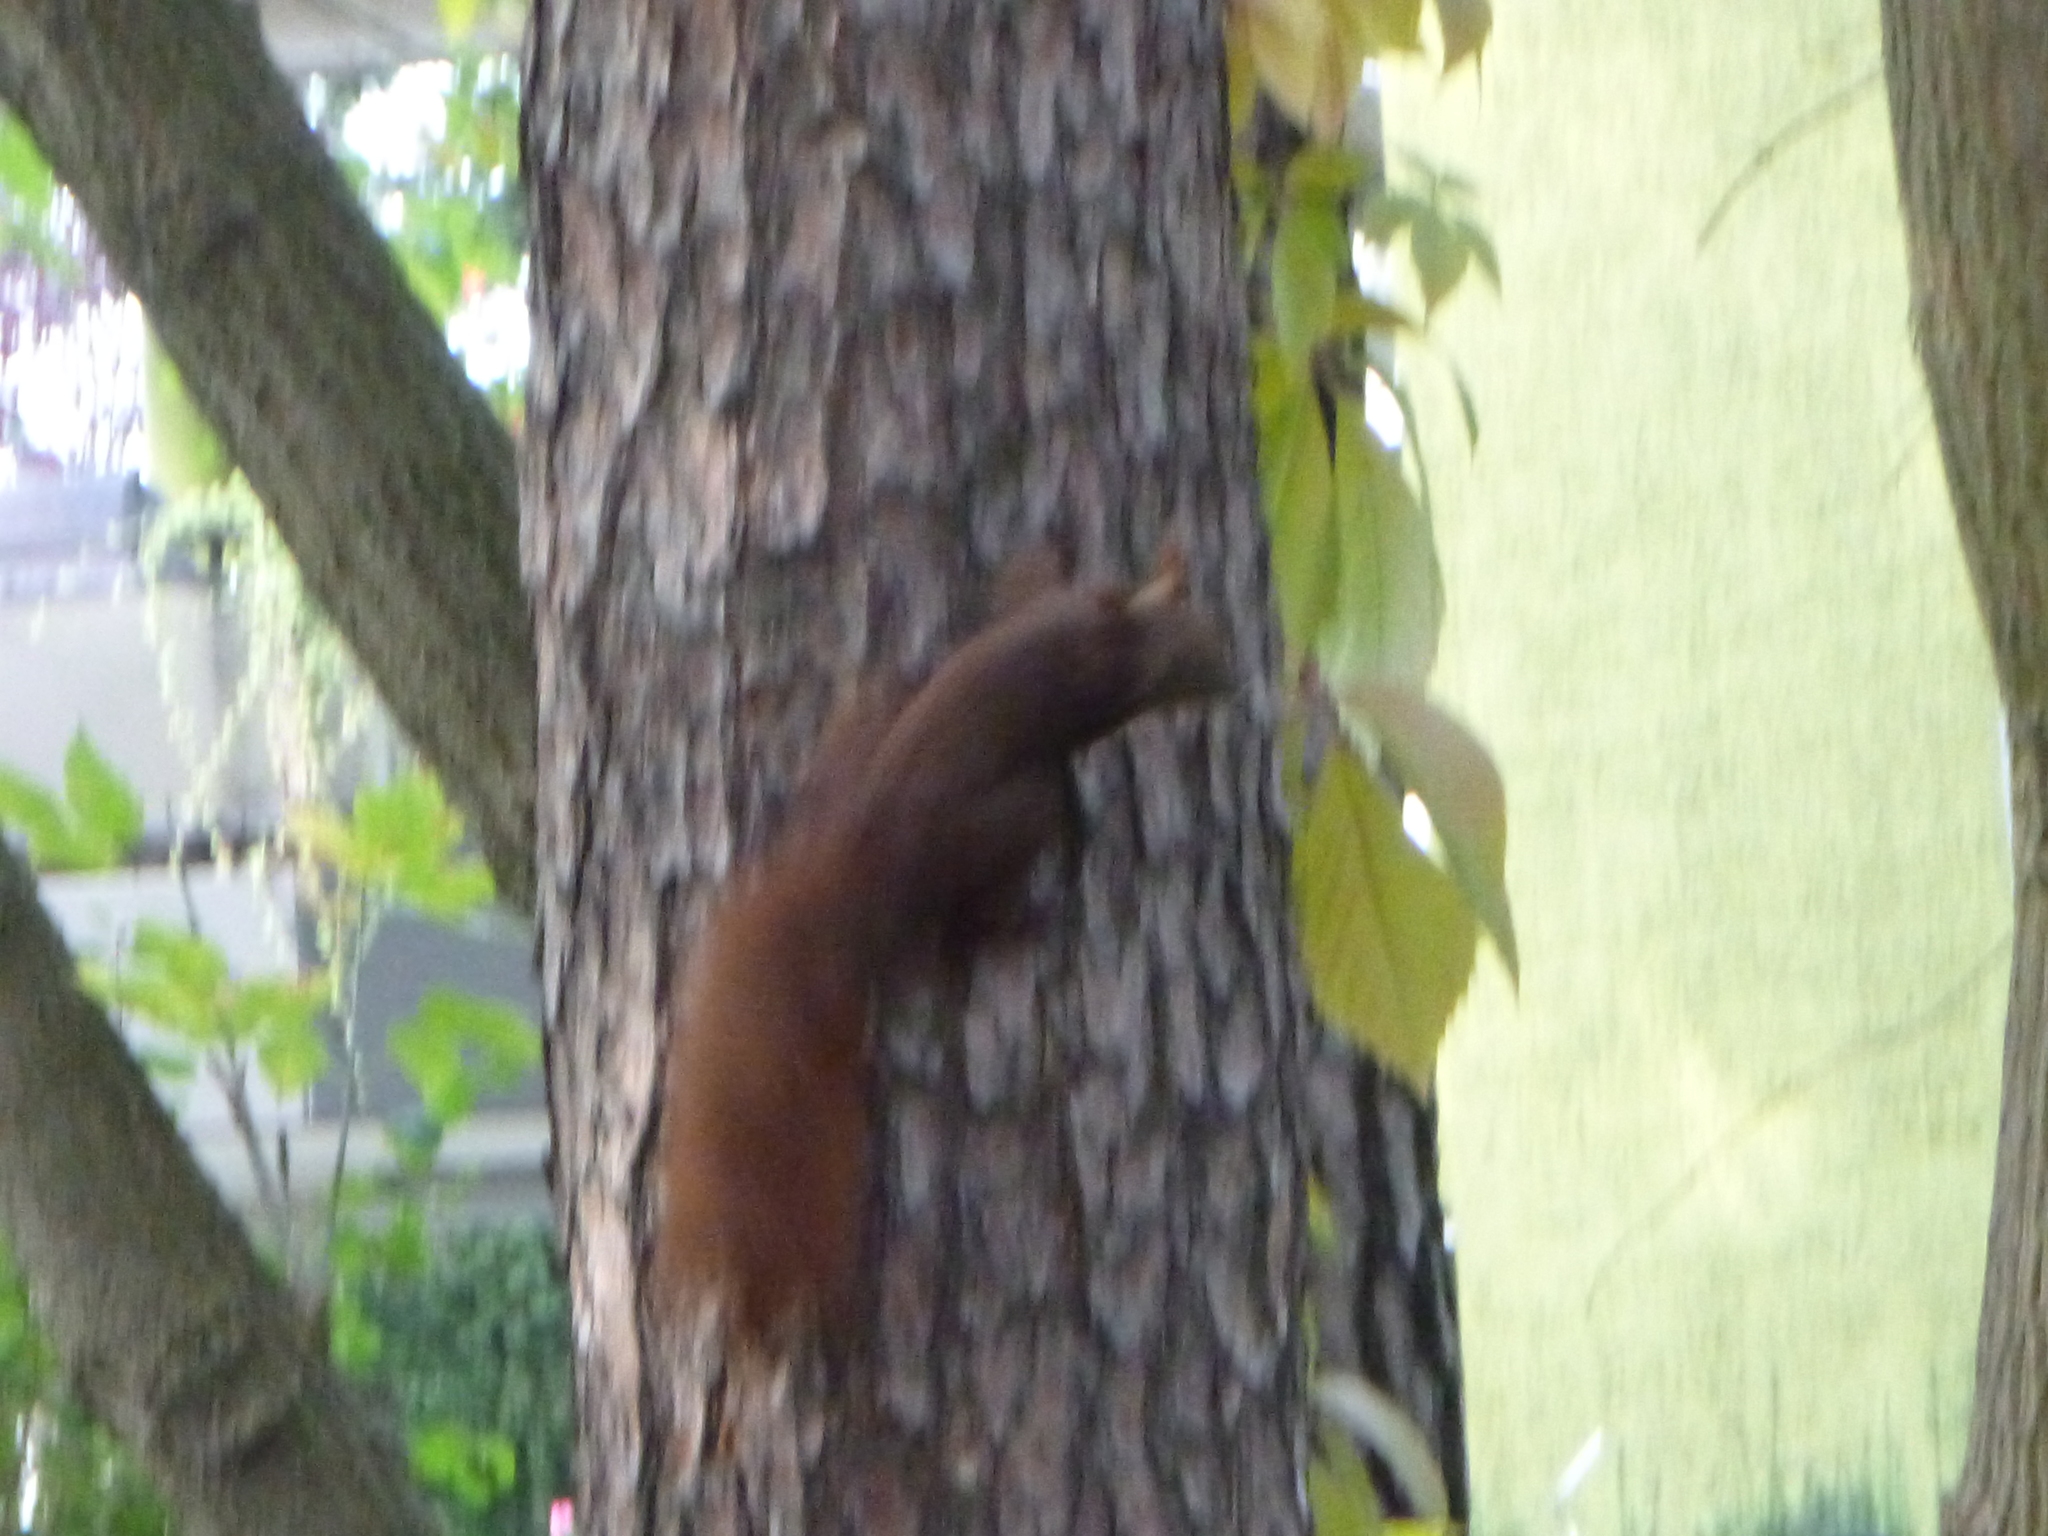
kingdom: Animalia
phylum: Chordata
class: Mammalia
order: Rodentia
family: Sciuridae
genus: Sciurus
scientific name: Sciurus vulgaris
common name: Eurasian red squirrel
